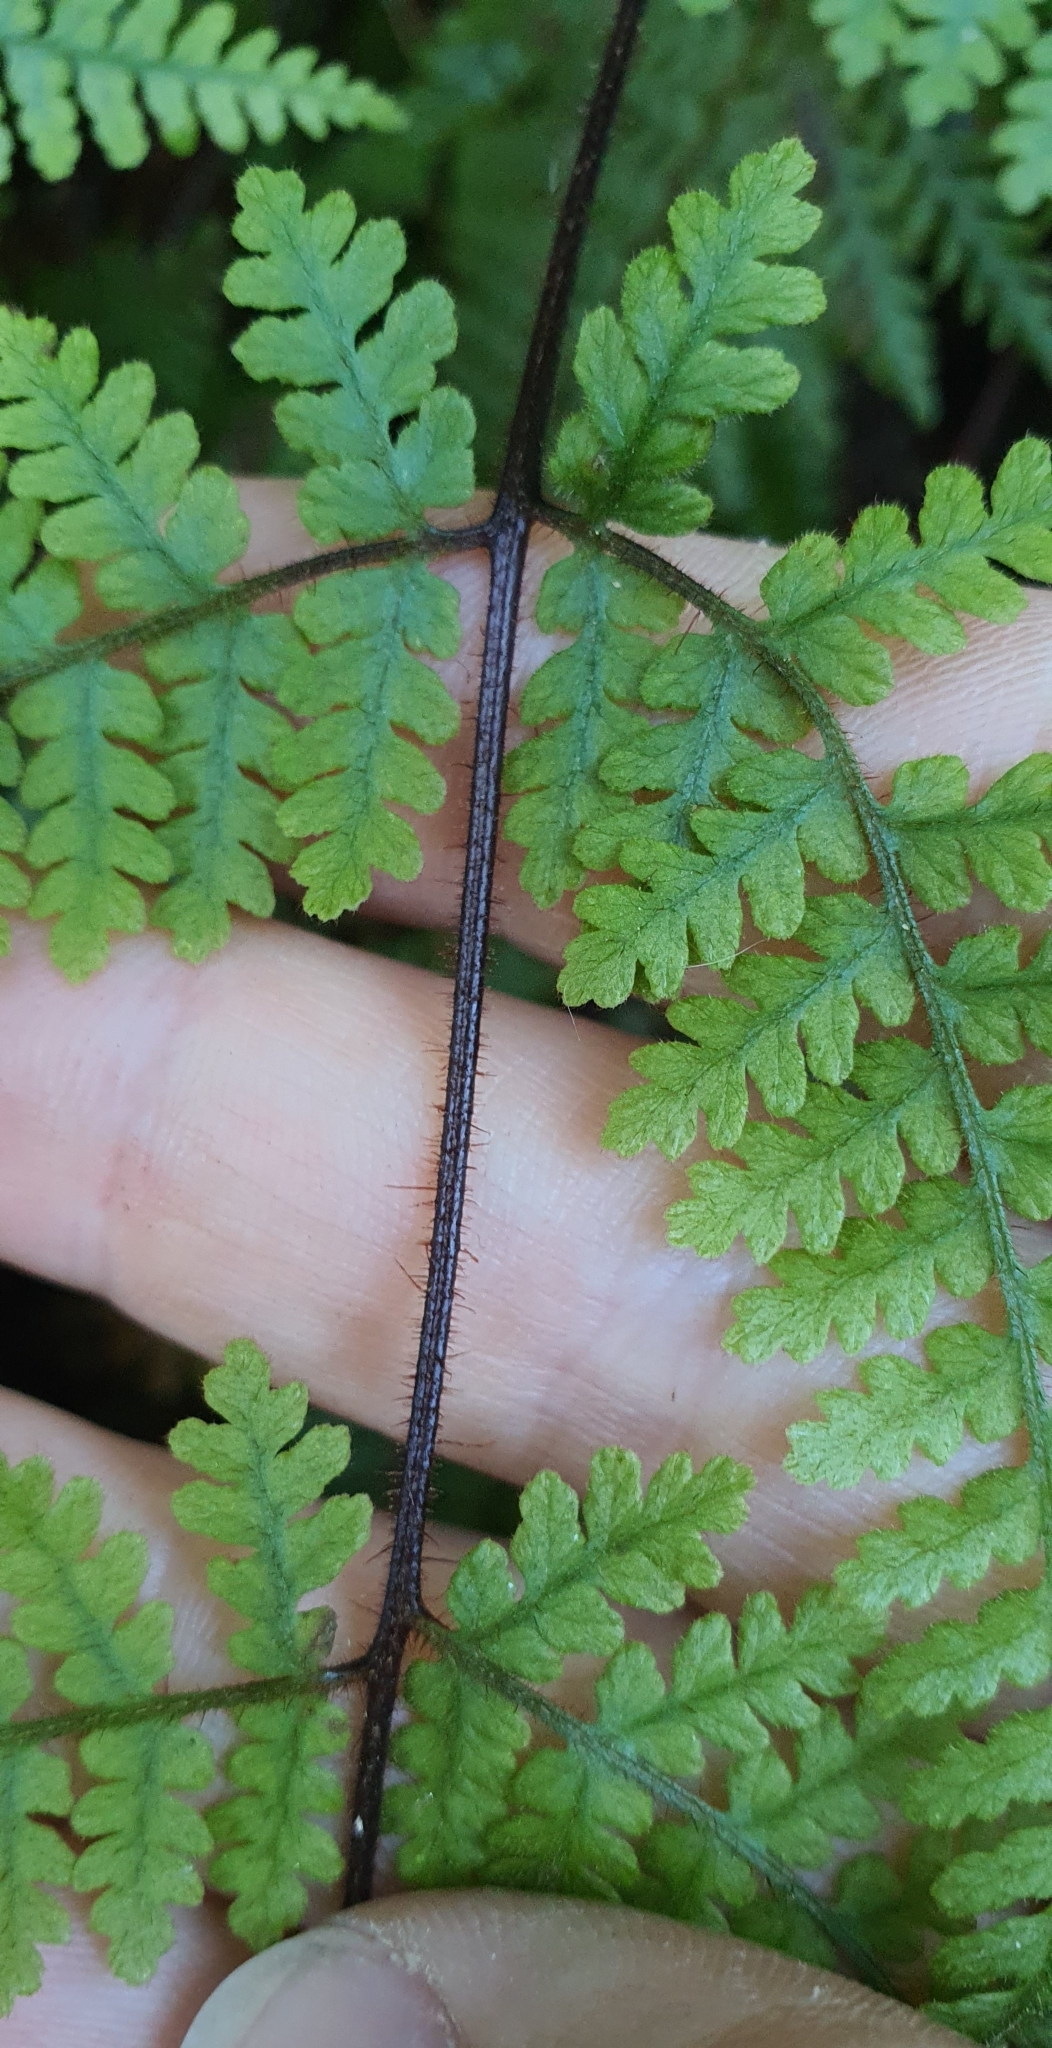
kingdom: Plantae
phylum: Tracheophyta
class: Polypodiopsida
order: Polypodiales
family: Dennstaedtiaceae
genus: Hypolepis
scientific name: Hypolepis ambigua
